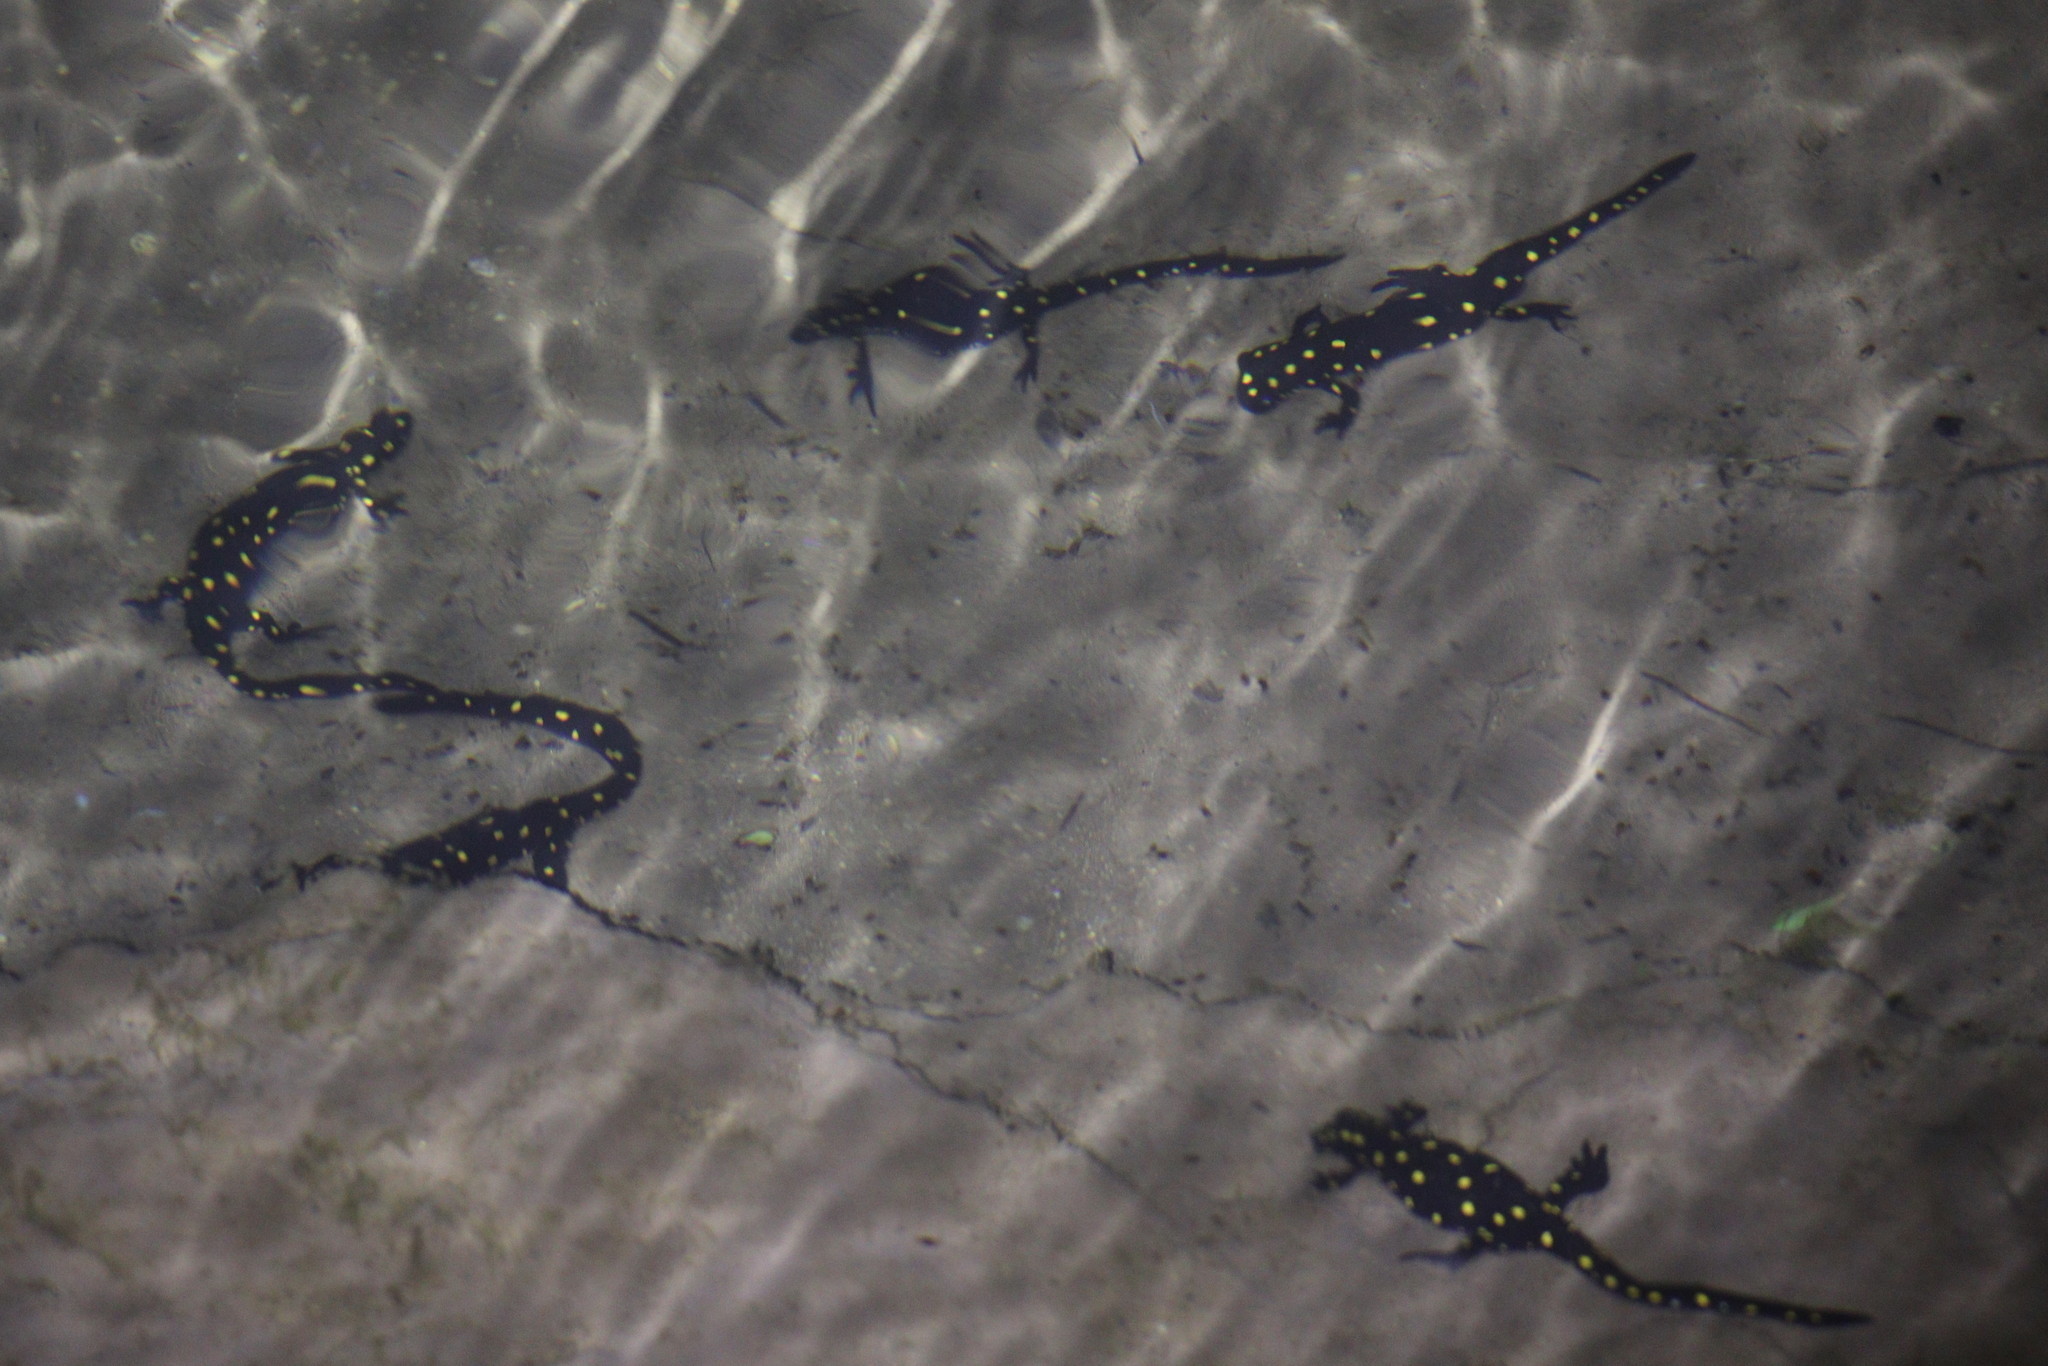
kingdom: Animalia
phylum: Chordata
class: Amphibia
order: Caudata
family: Salamandridae
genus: Neurergus
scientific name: Neurergus barani
